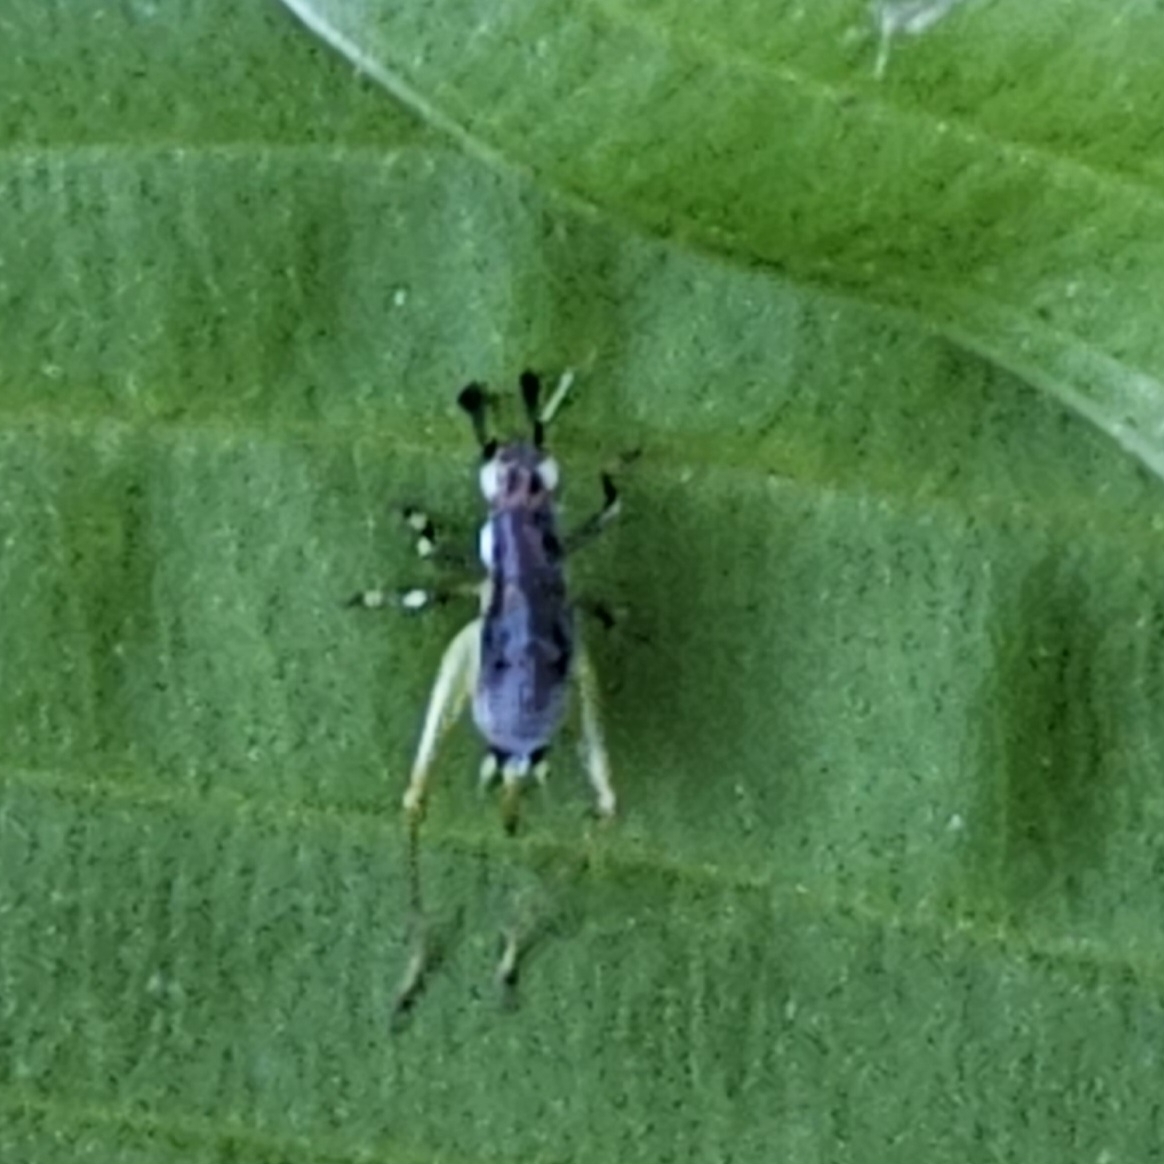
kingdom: Animalia
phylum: Arthropoda
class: Insecta
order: Orthoptera
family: Trigonidiidae
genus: Phyllopalpus
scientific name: Phyllopalpus pulchellus
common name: Handsome trig
